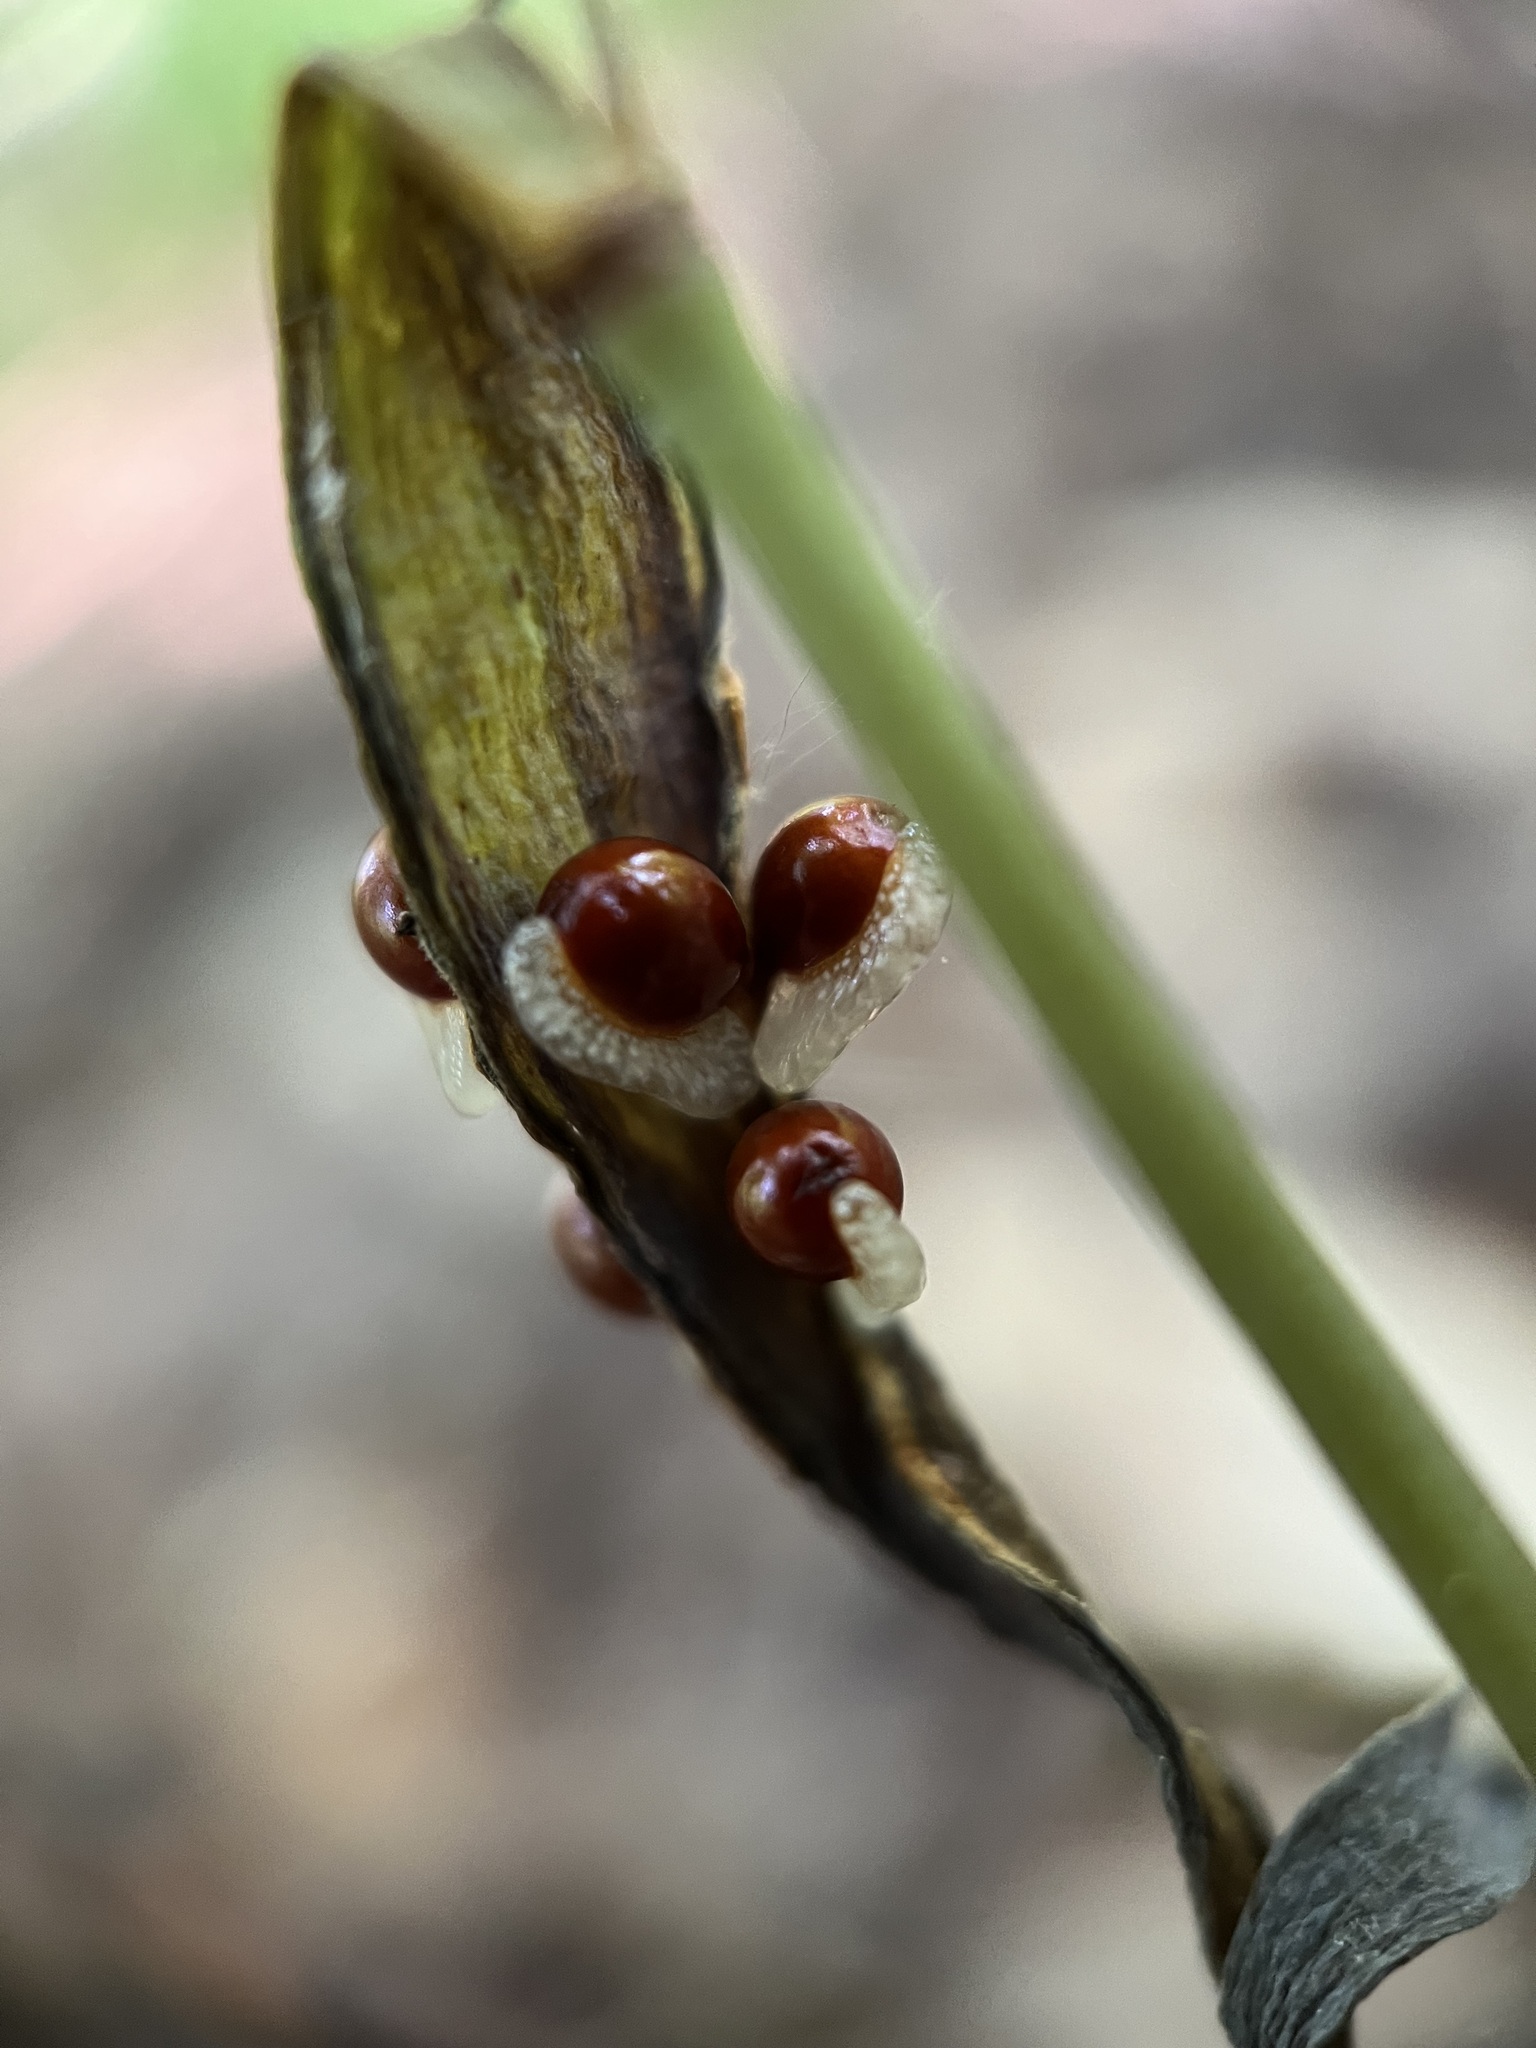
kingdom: Plantae
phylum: Tracheophyta
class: Magnoliopsida
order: Ranunculales
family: Papaveraceae
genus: Sanguinaria
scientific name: Sanguinaria canadensis
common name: Bloodroot
